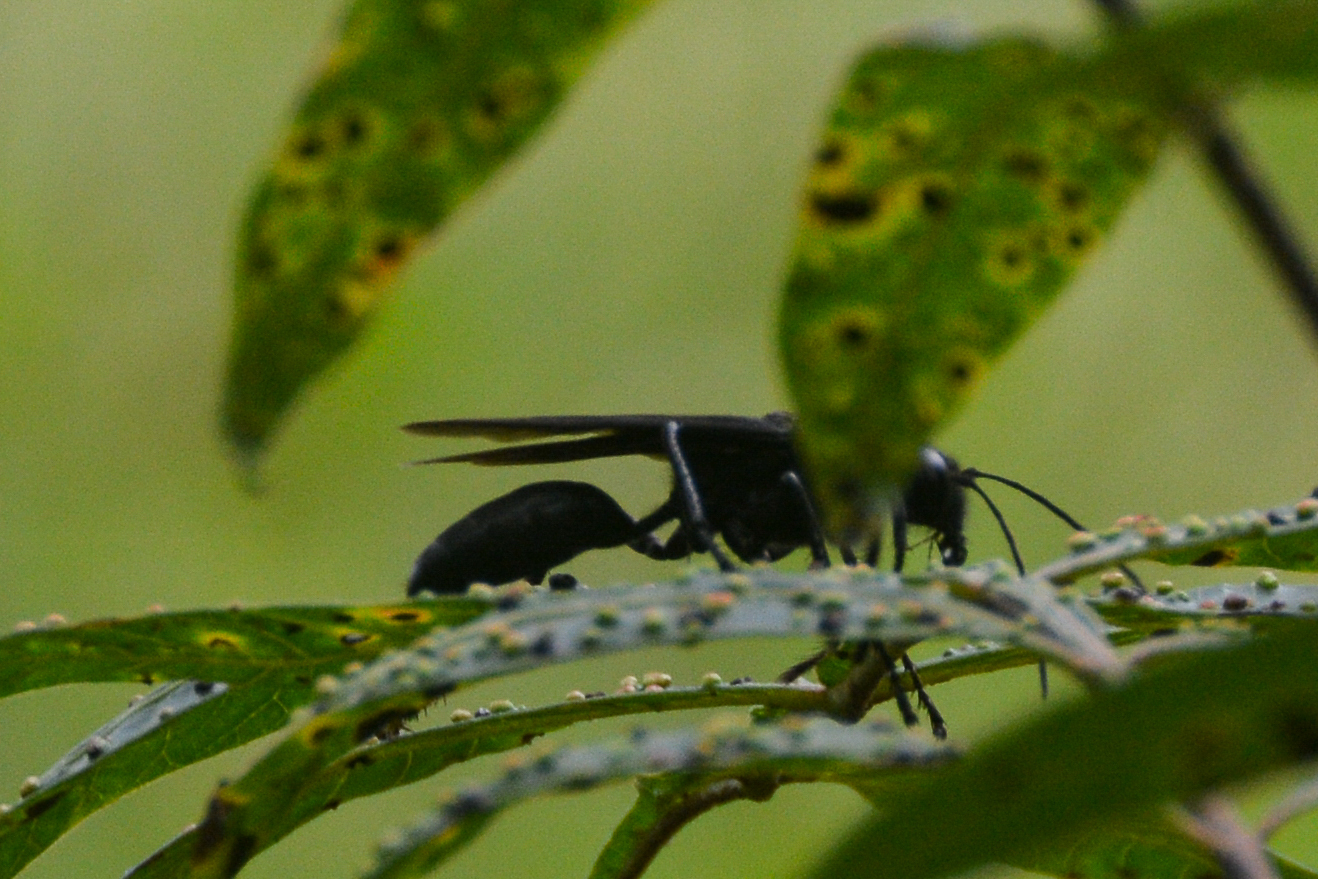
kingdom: Animalia
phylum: Arthropoda
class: Insecta
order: Hymenoptera
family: Sphecidae
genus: Sphex
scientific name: Sphex pensylvanicus
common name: Great black digger wasp
